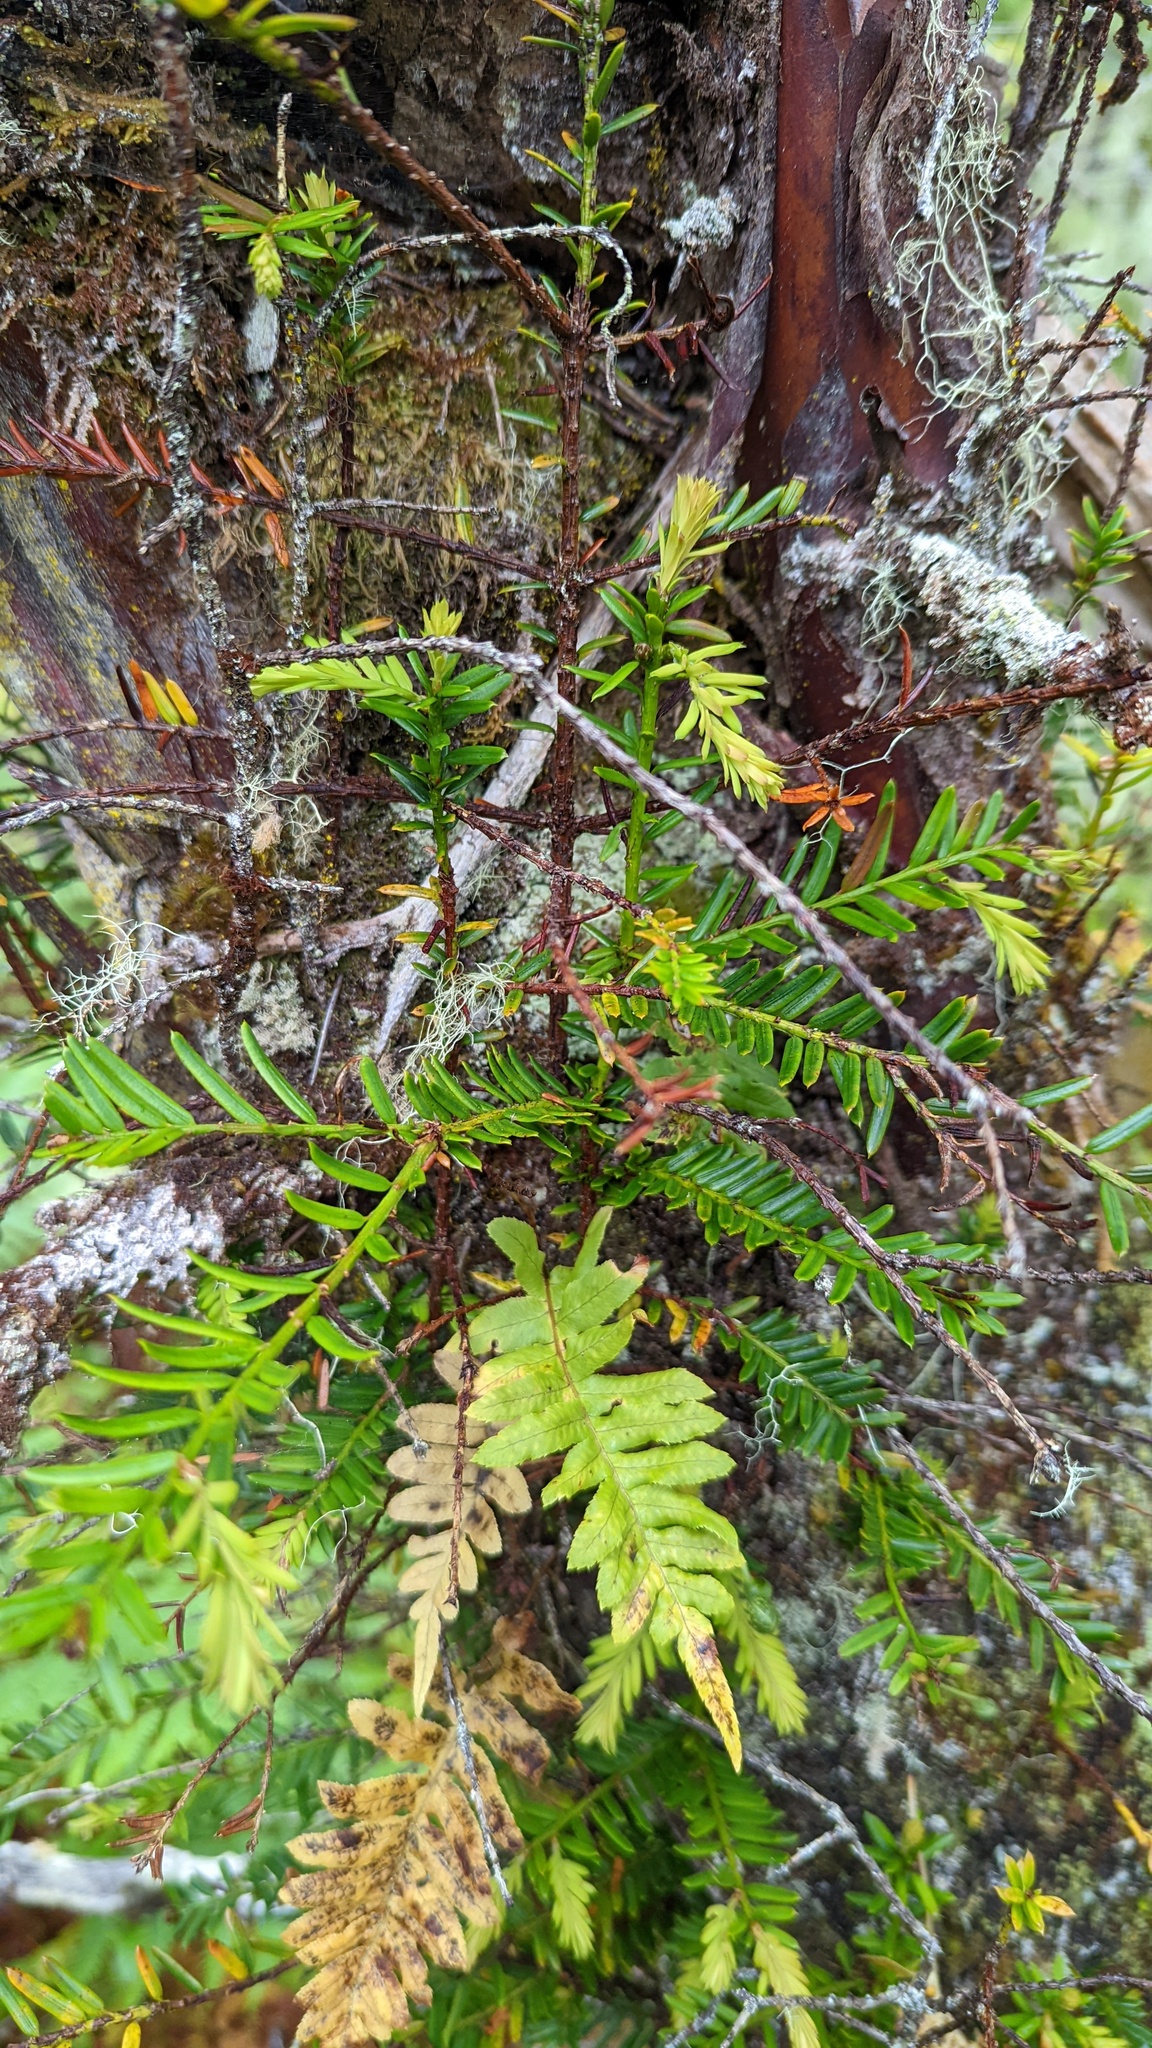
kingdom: Plantae
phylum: Tracheophyta
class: Pinopsida
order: Pinales
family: Taxaceae
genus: Taxus
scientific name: Taxus brevifolia
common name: Pacific yew
